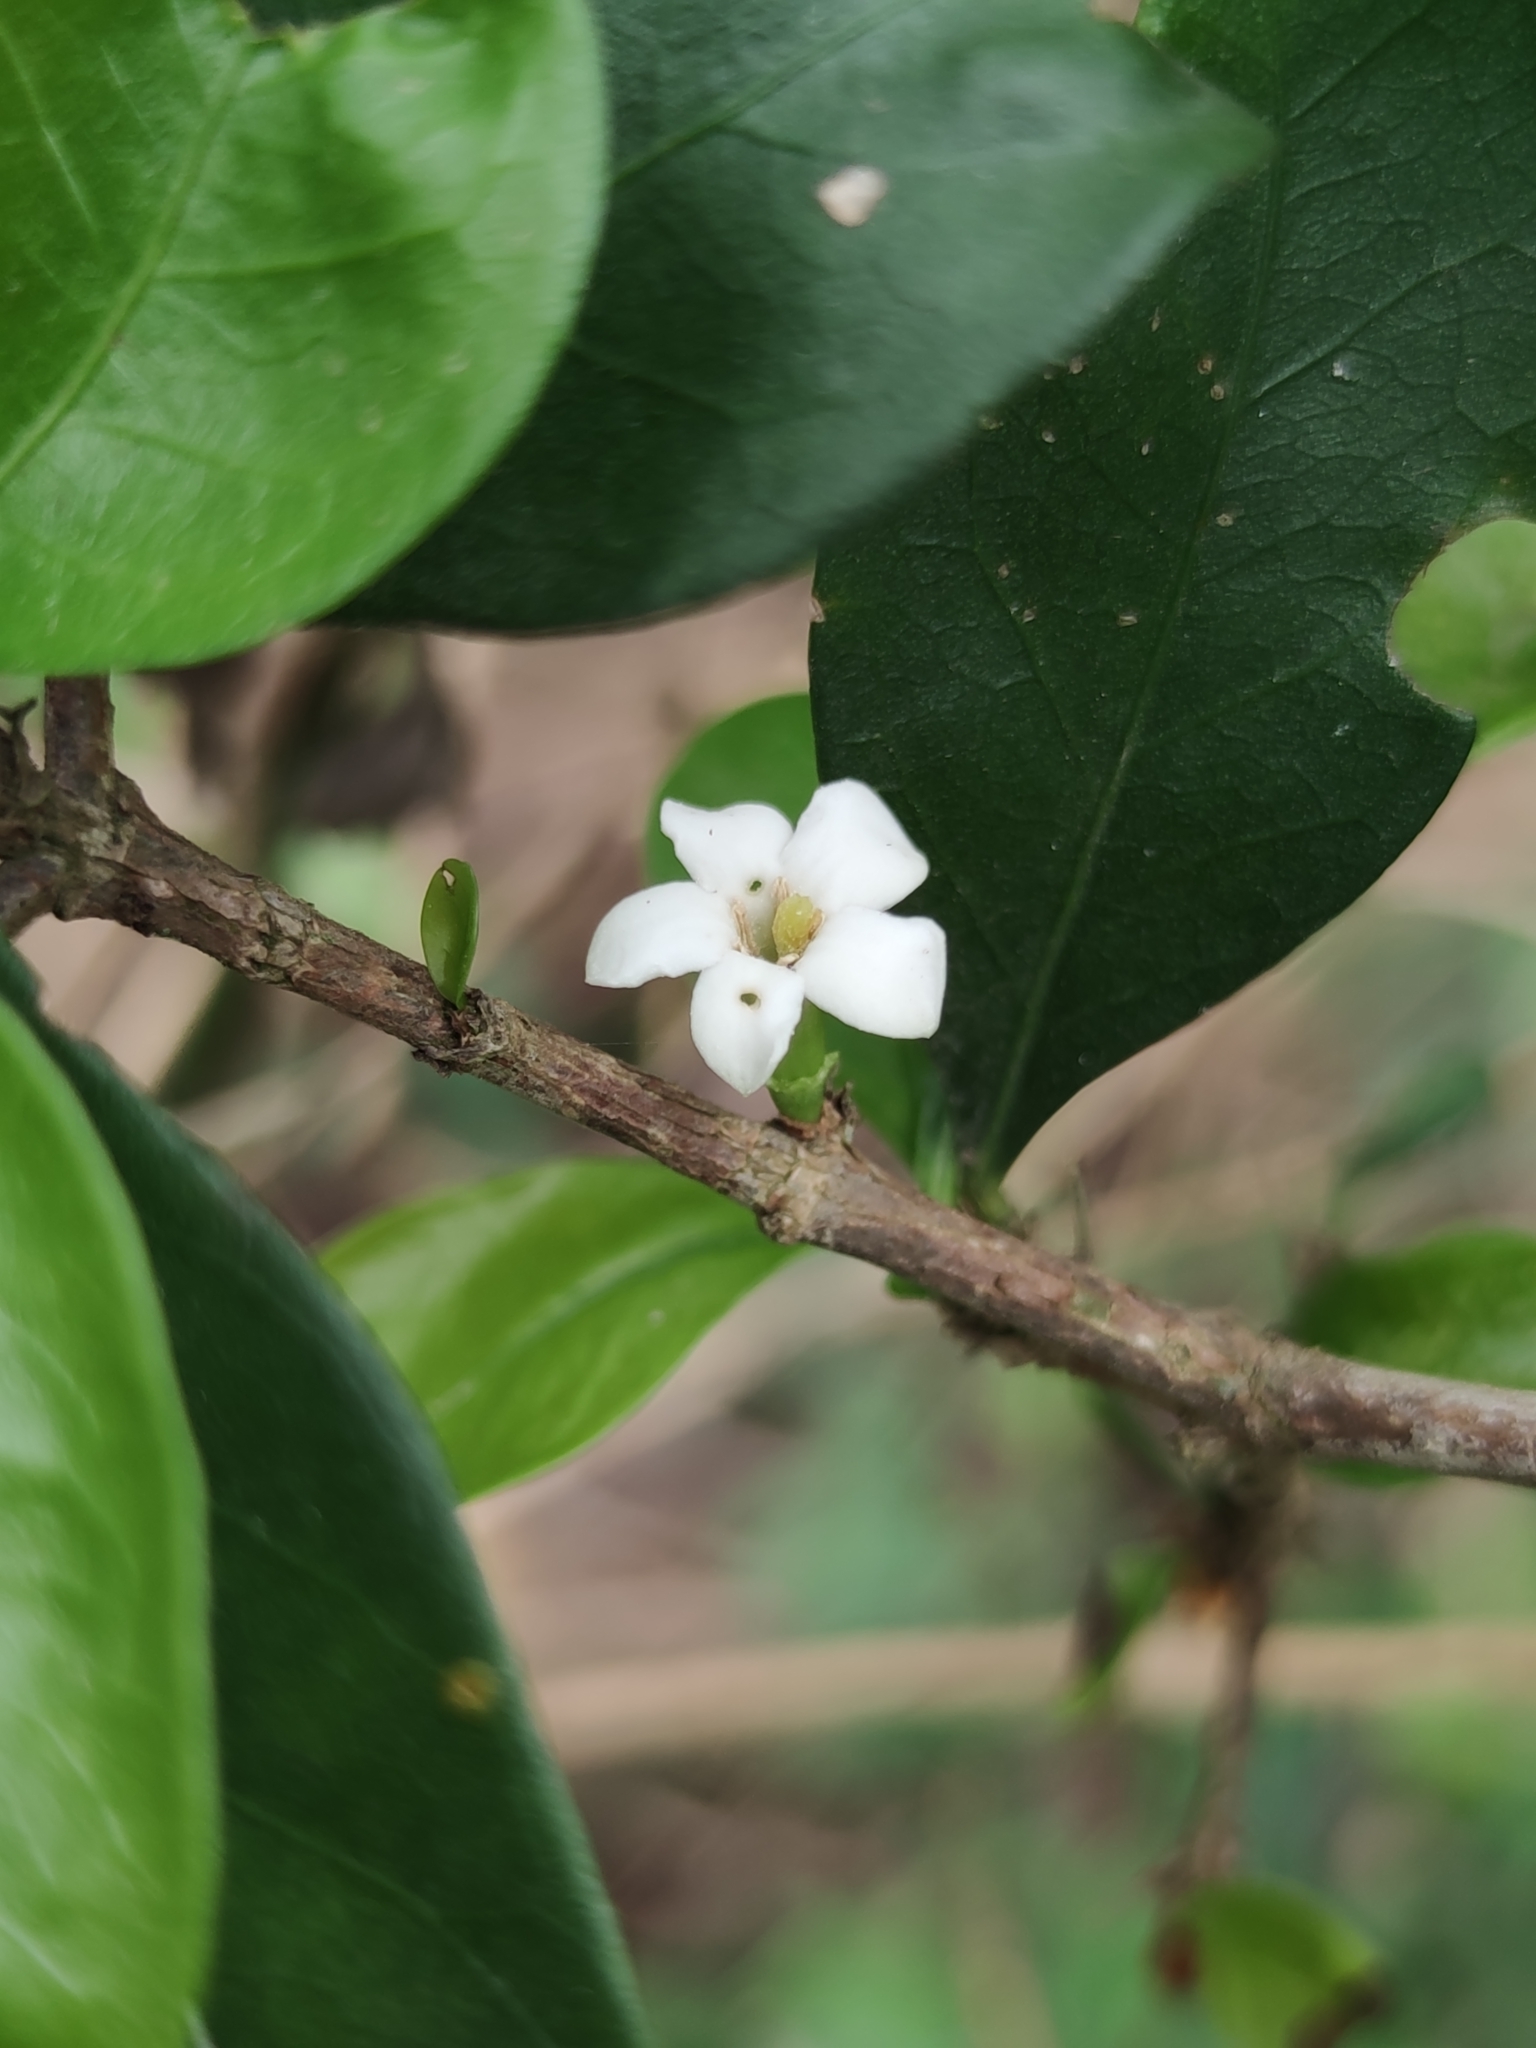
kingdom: Plantae
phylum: Tracheophyta
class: Magnoliopsida
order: Gentianales
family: Rubiaceae
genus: Randia
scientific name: Randia aculeata
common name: Inkberry
